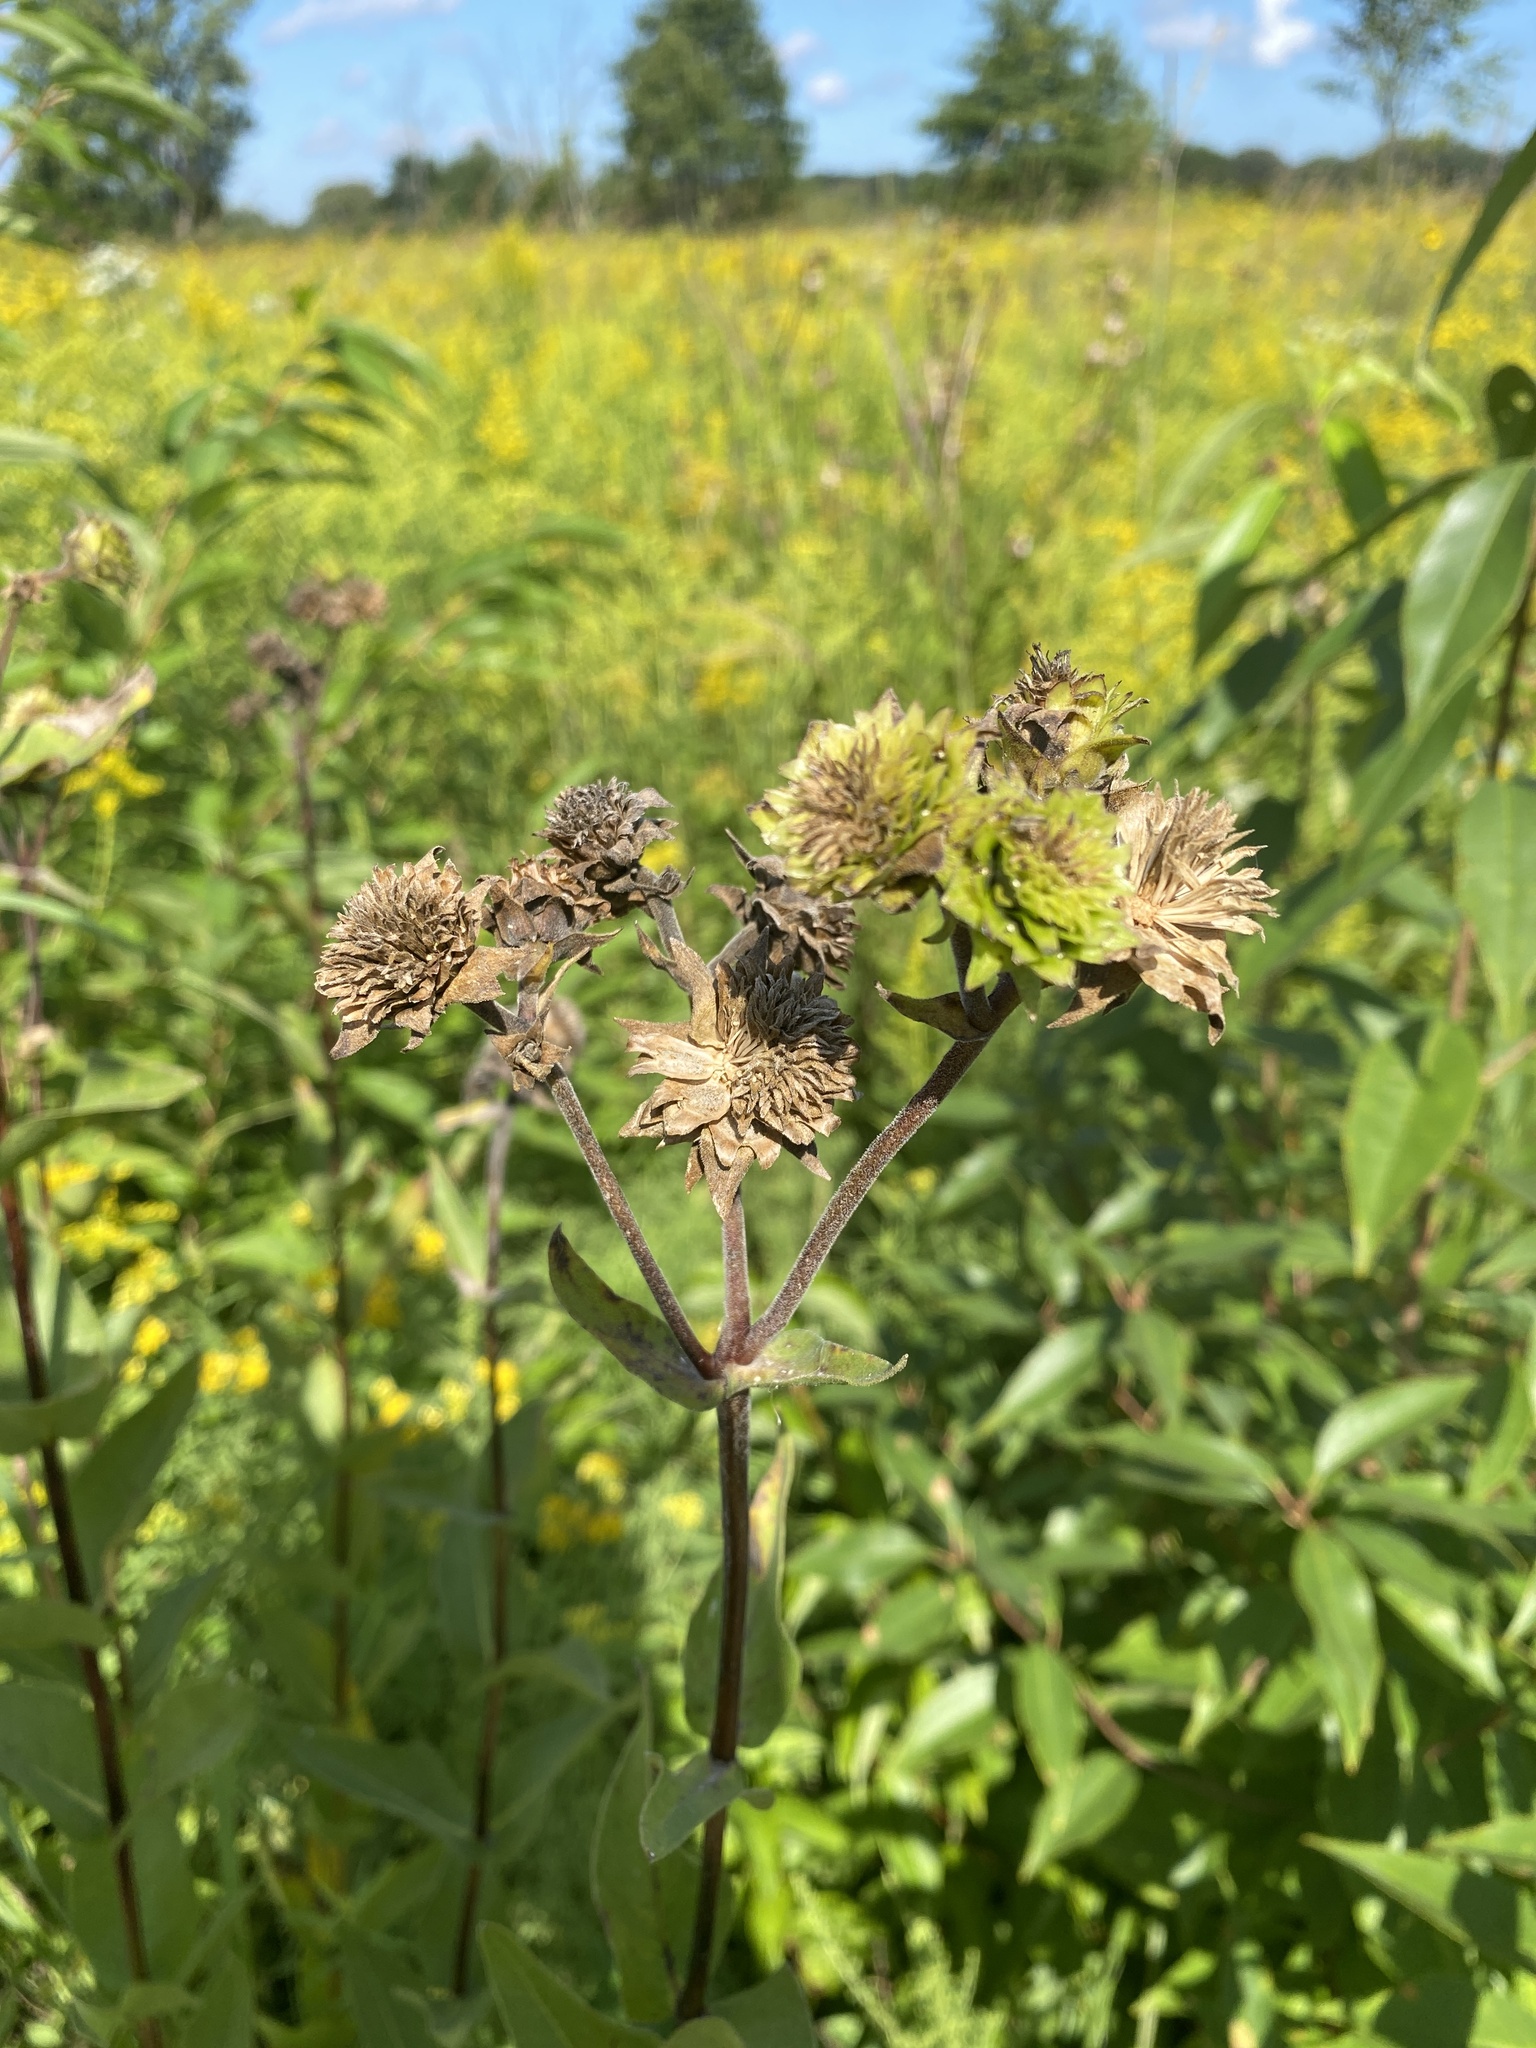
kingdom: Plantae
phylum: Tracheophyta
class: Magnoliopsida
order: Asterales
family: Asteraceae
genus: Silphium
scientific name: Silphium integrifolium
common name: Whole-leaf rosinweed
